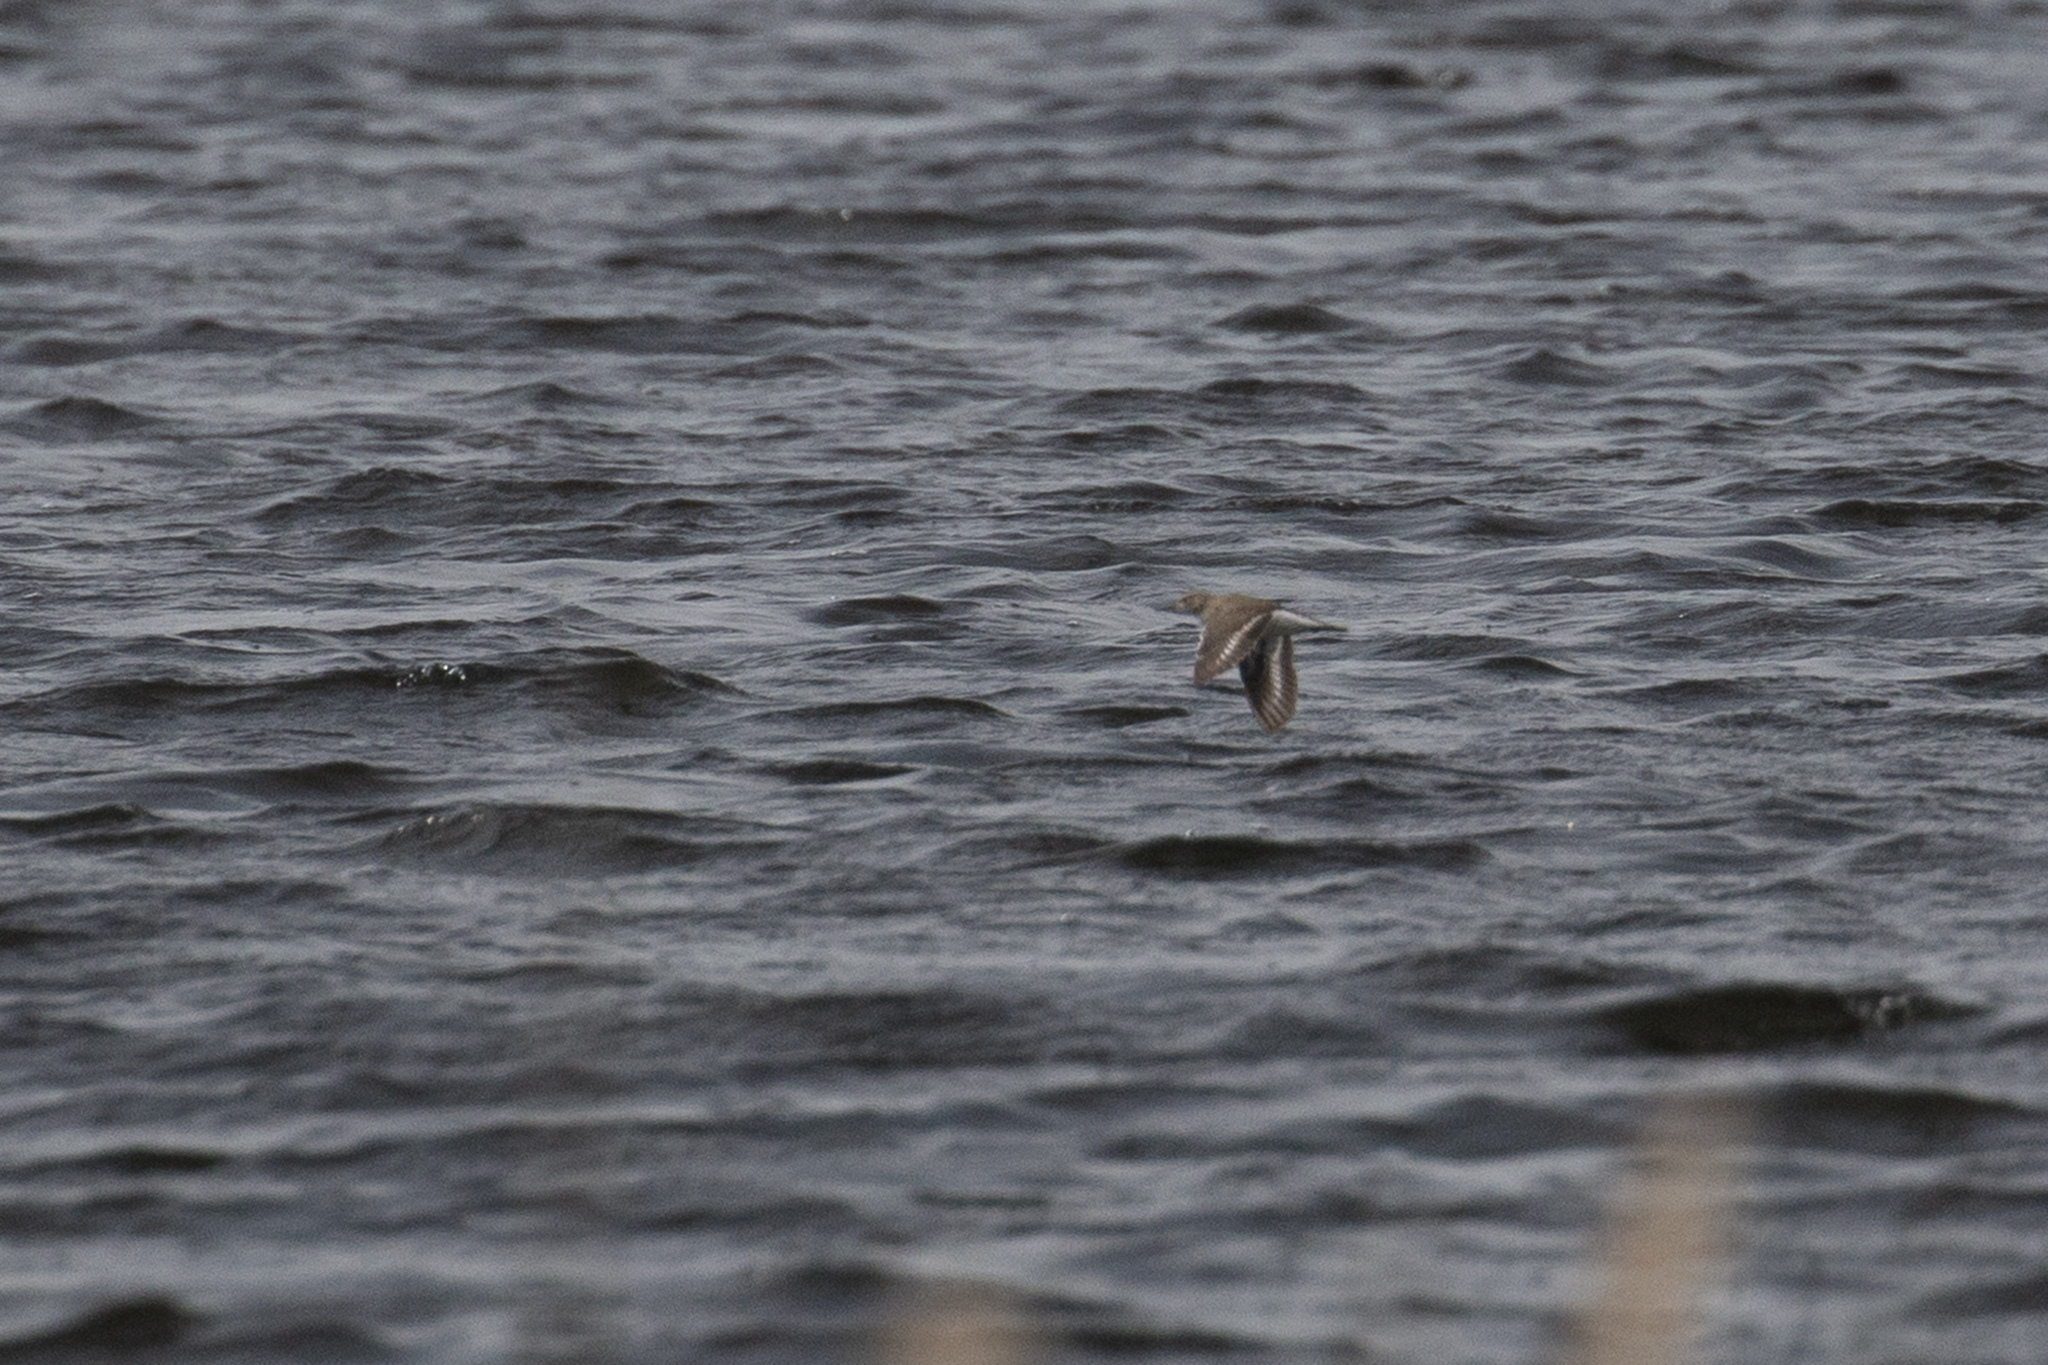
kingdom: Animalia
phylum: Chordata
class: Aves
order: Charadriiformes
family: Scolopacidae
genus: Actitis
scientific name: Actitis hypoleucos
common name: Common sandpiper
